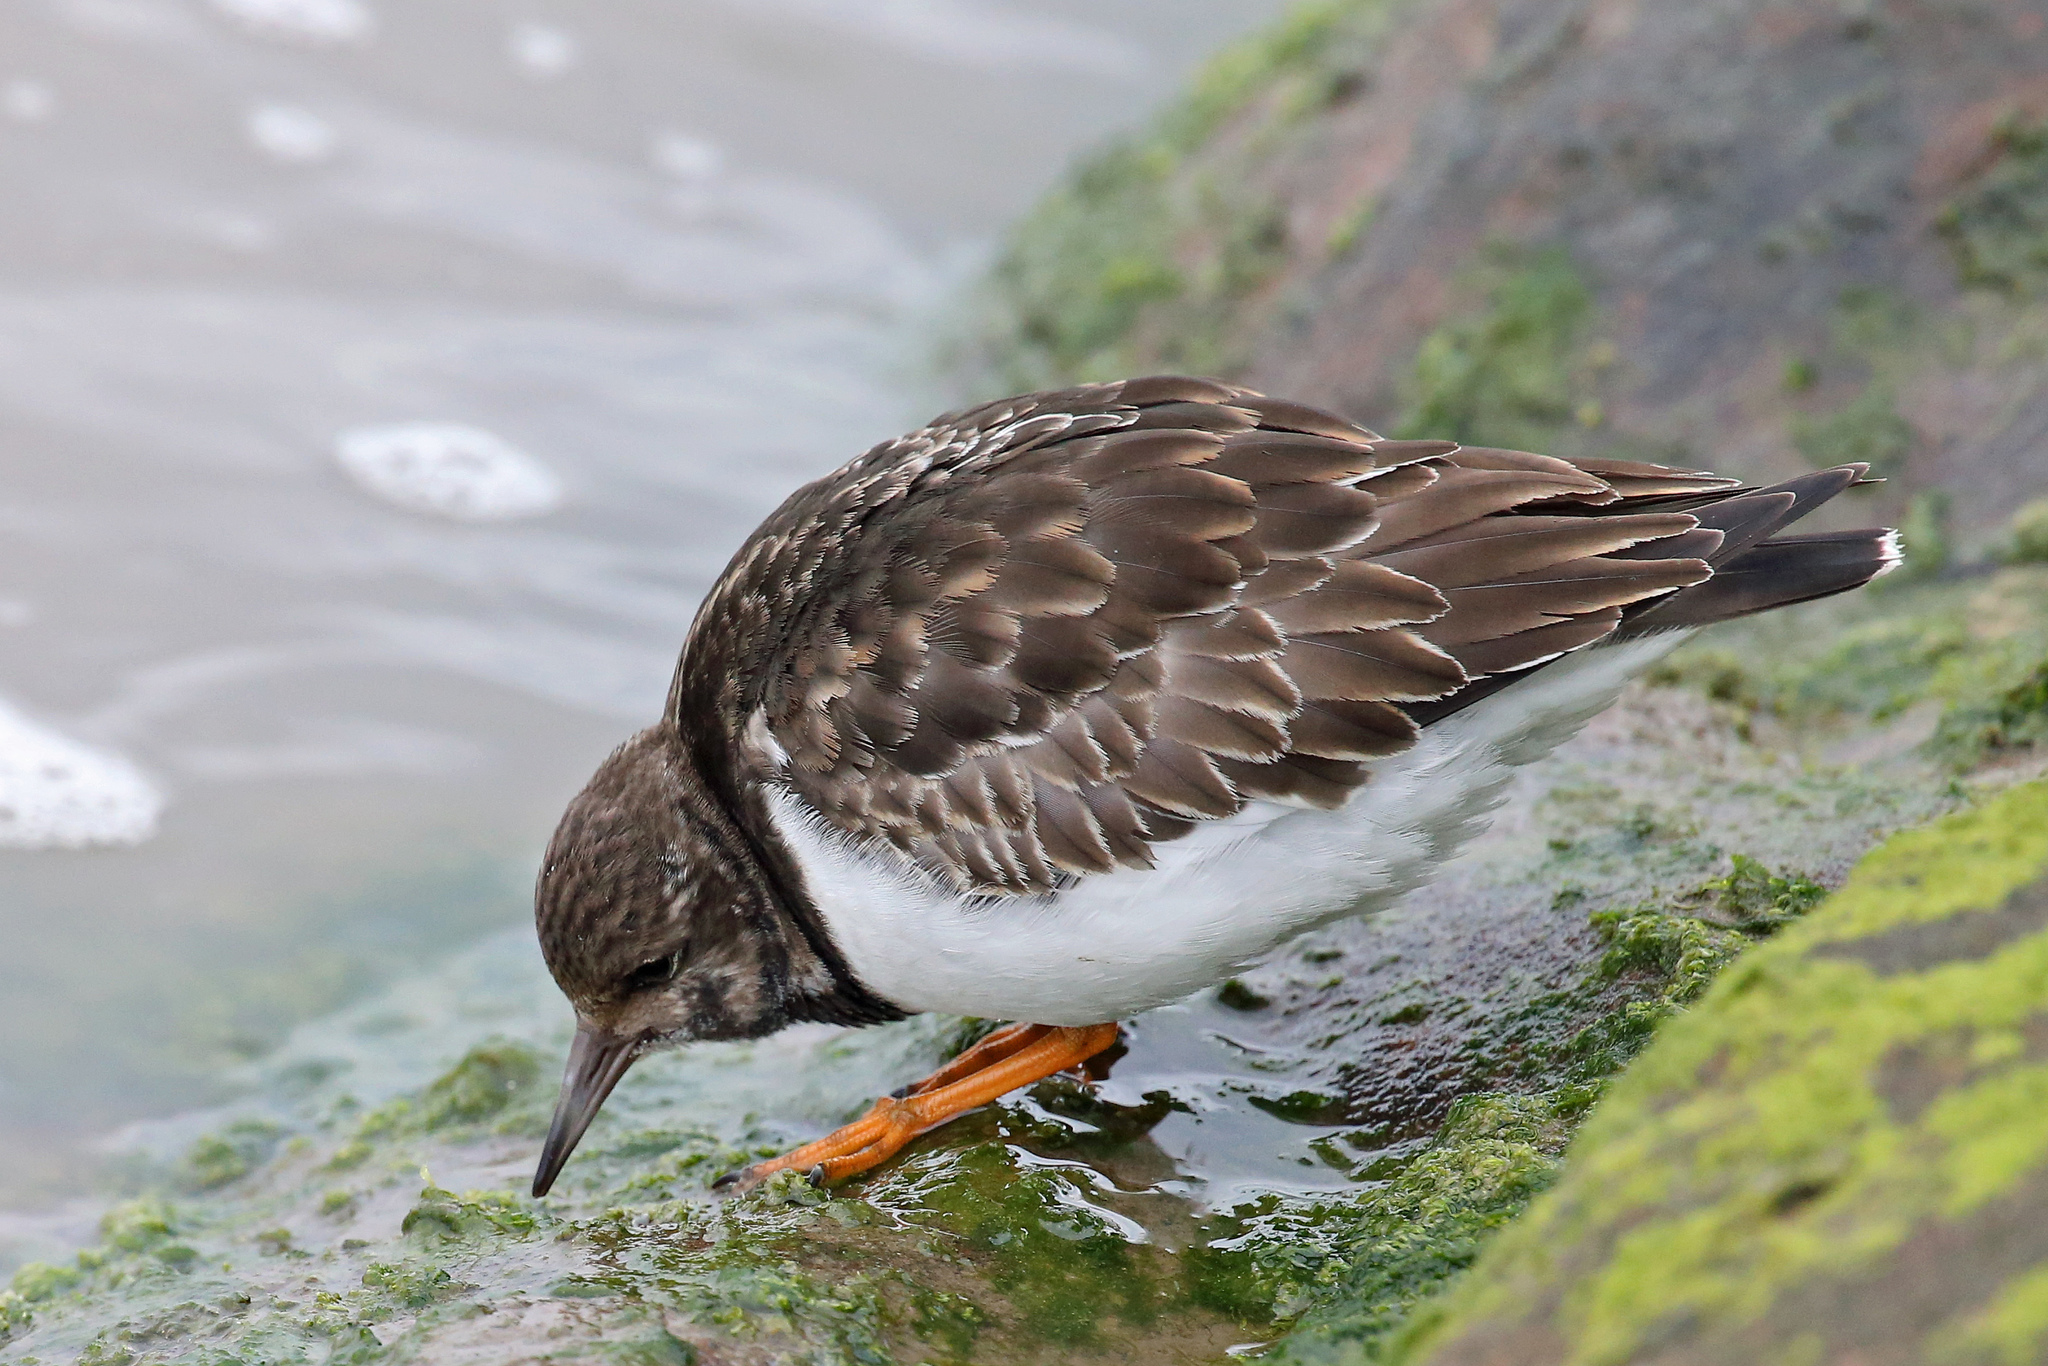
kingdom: Animalia
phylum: Chordata
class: Aves
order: Charadriiformes
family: Scolopacidae
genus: Arenaria
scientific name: Arenaria interpres
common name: Ruddy turnstone
